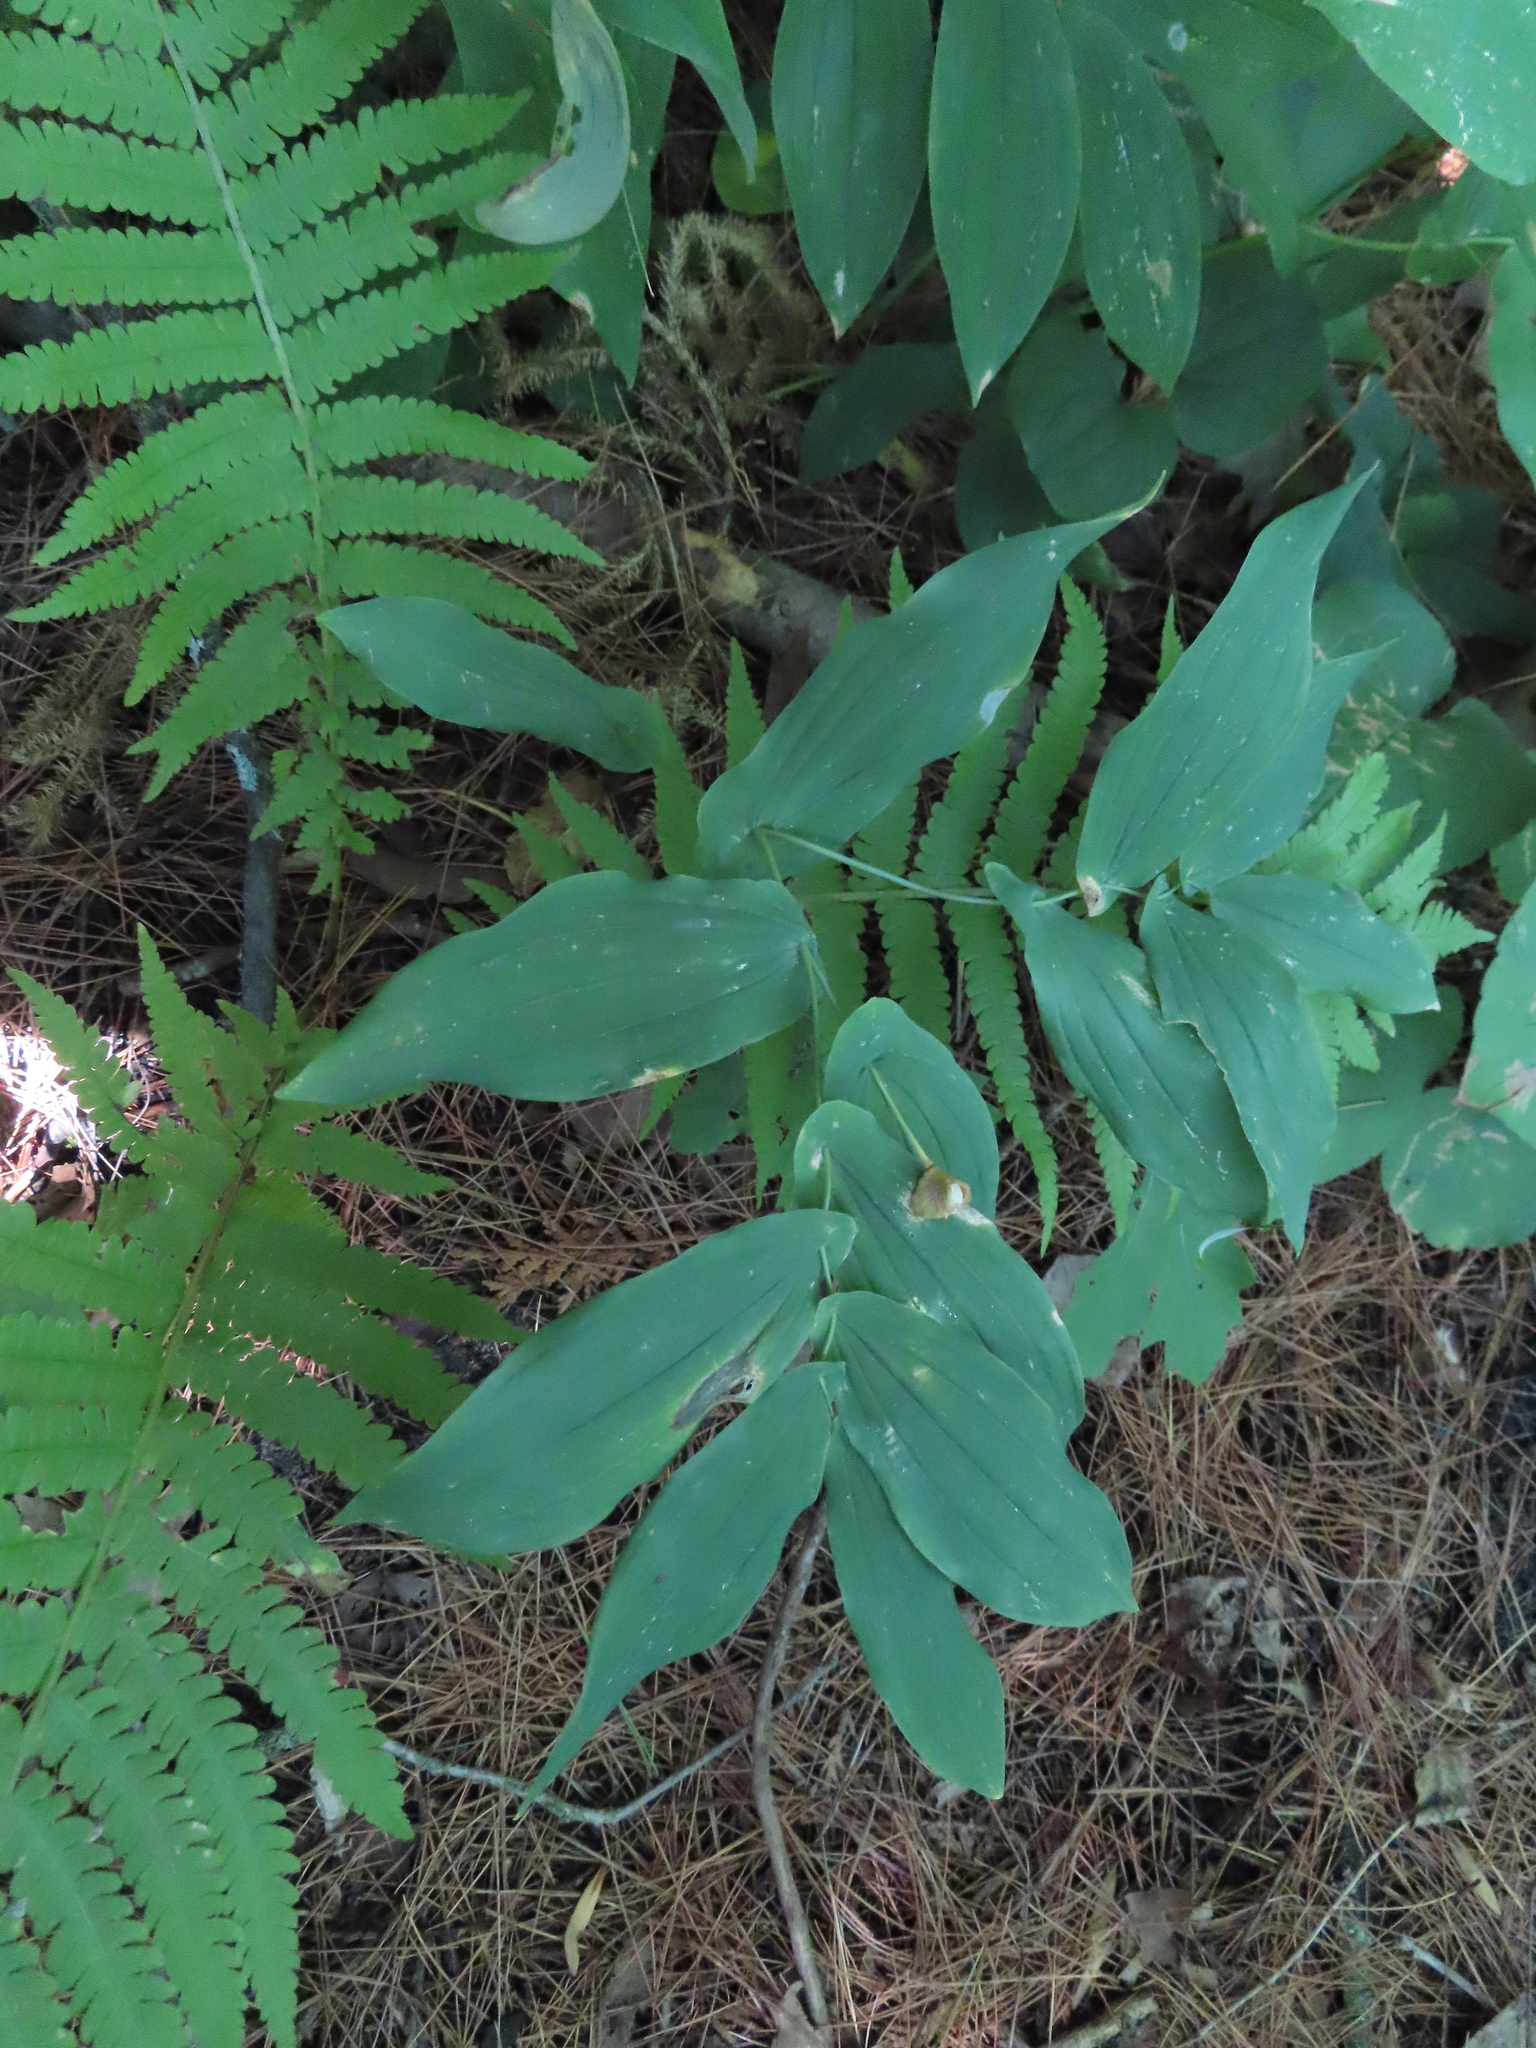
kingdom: Plantae
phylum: Tracheophyta
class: Liliopsida
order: Liliales
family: Colchicaceae
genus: Uvularia
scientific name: Uvularia grandiflora
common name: Bellwort
